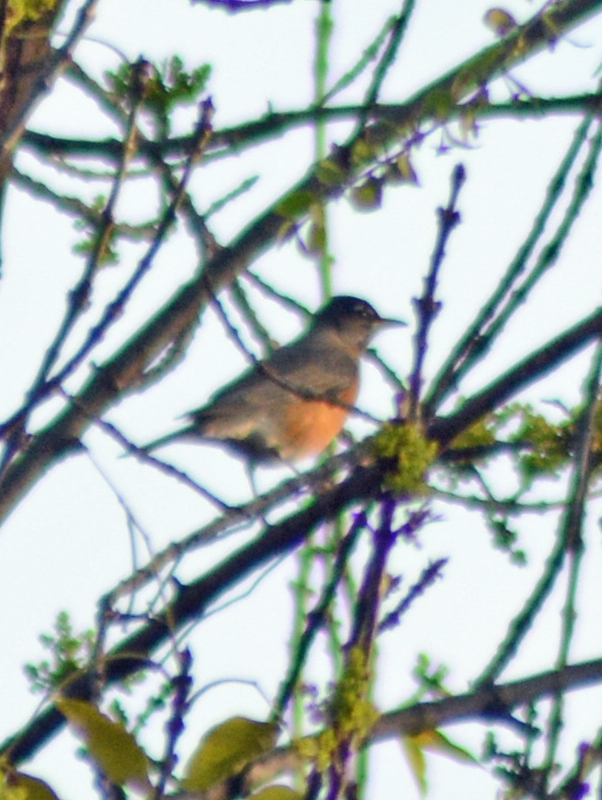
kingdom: Animalia
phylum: Chordata
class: Aves
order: Passeriformes
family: Turdidae
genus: Turdus
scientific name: Turdus migratorius
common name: American robin
